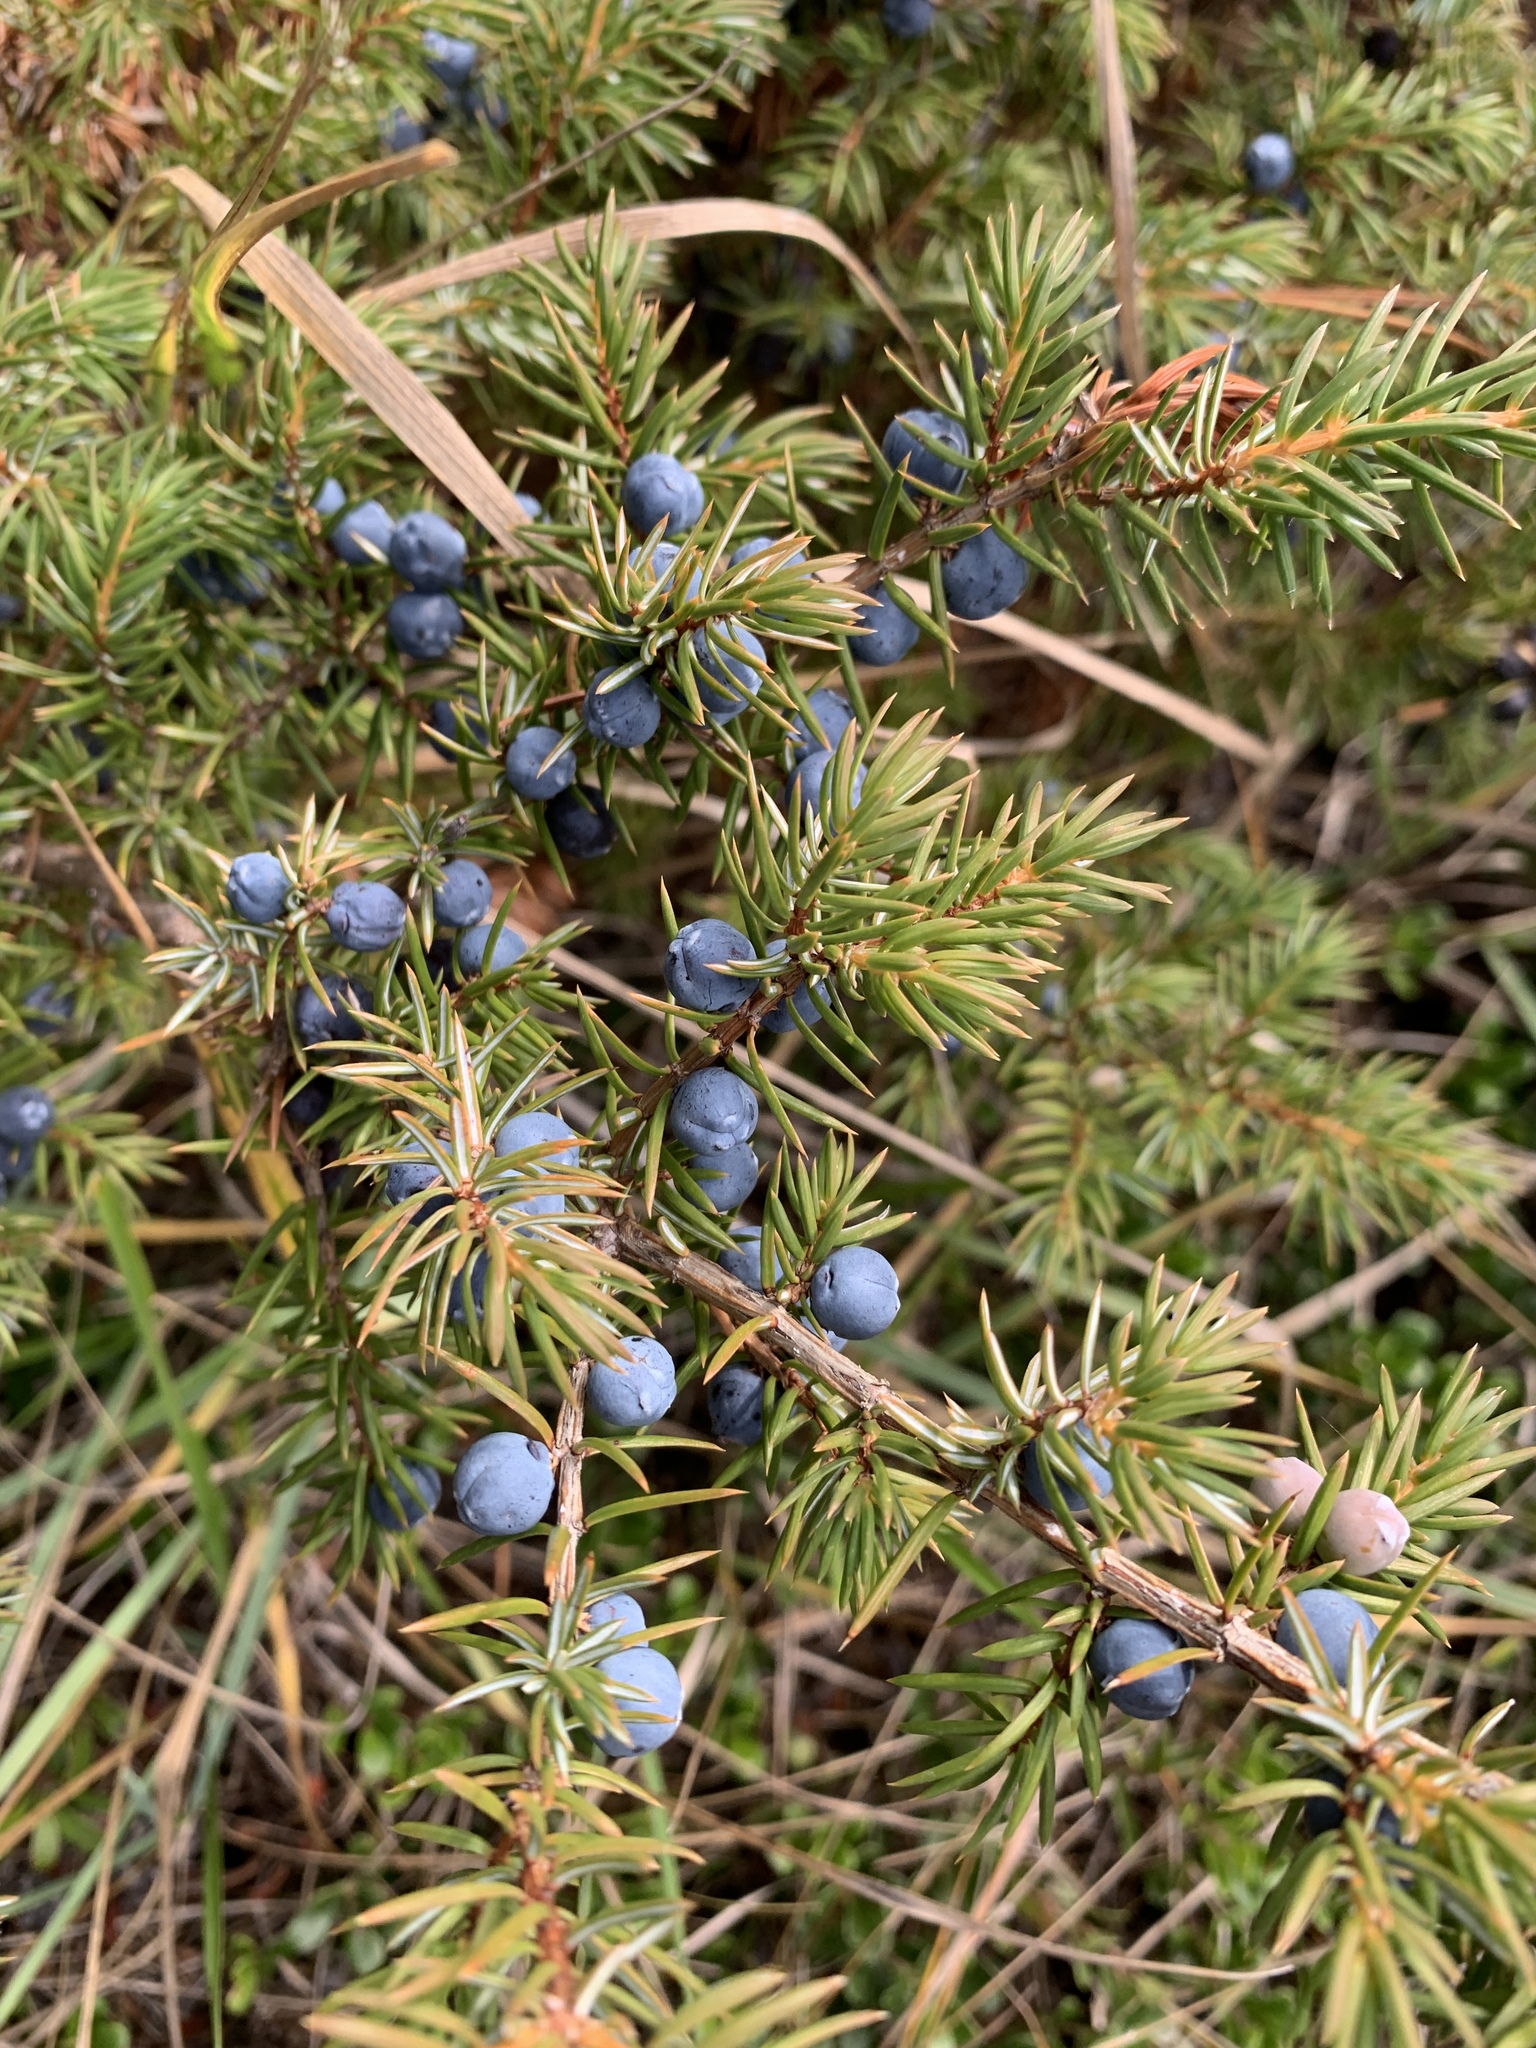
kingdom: Plantae
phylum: Tracheophyta
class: Pinopsida
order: Pinales
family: Cupressaceae
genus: Juniperus
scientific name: Juniperus communis
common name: Common juniper
